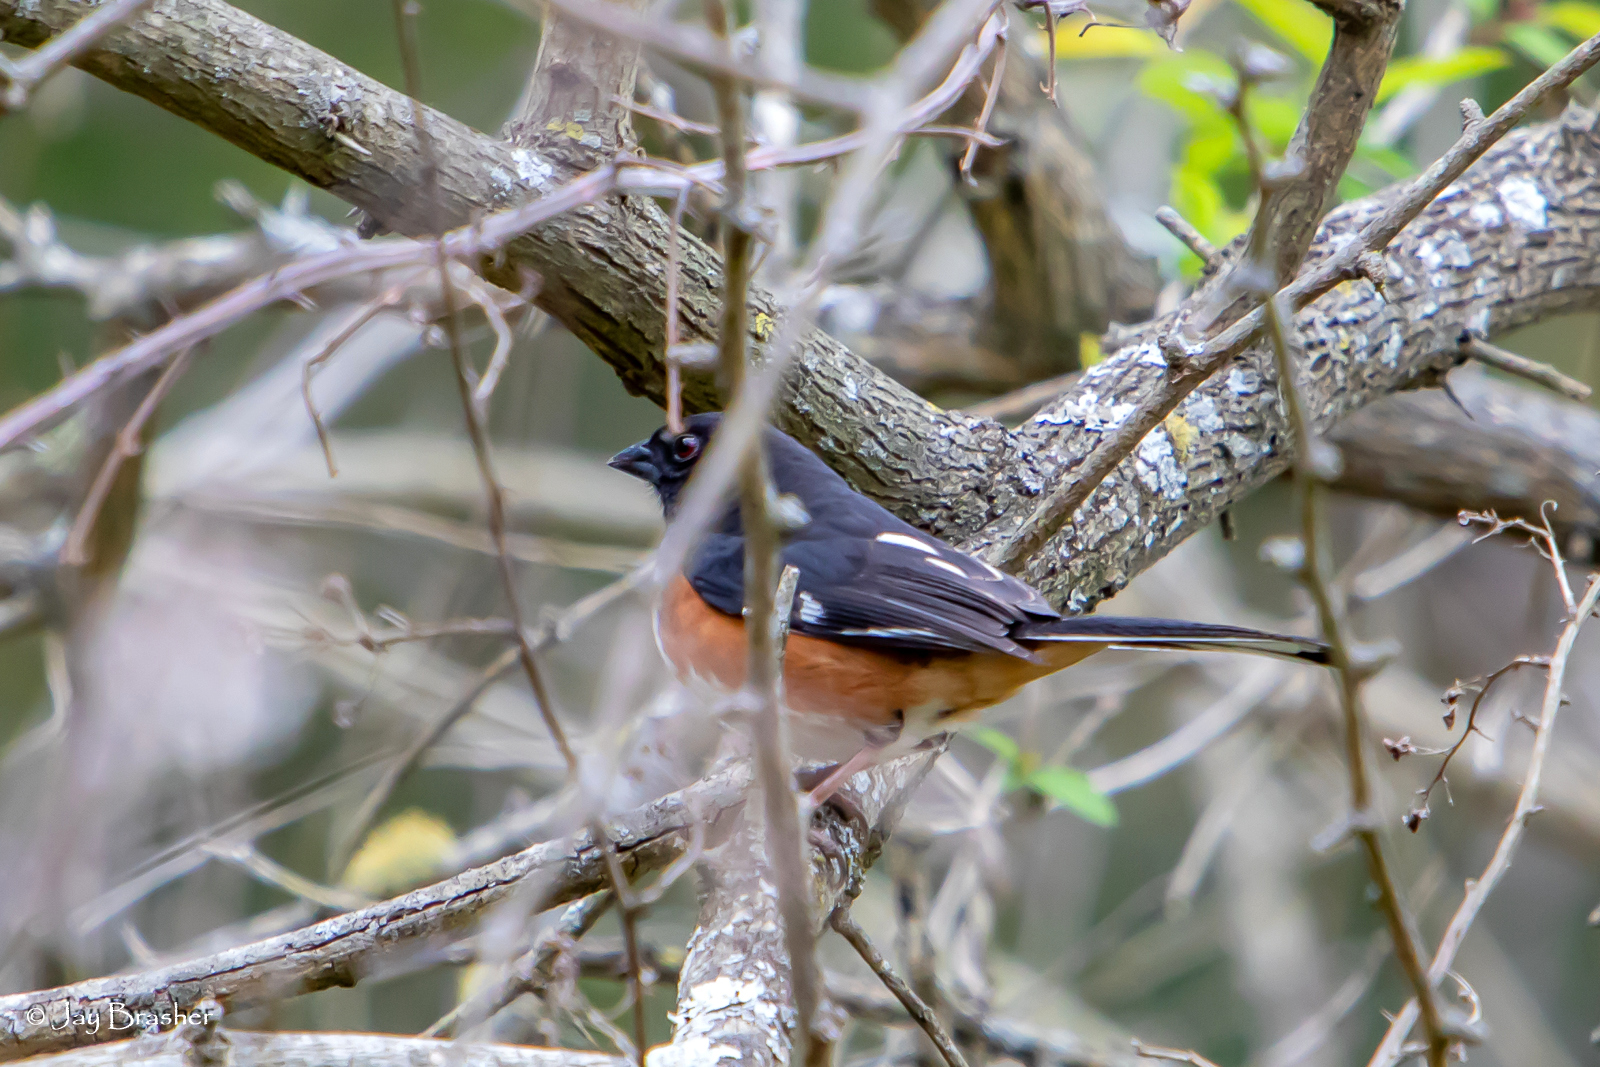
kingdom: Animalia
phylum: Chordata
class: Aves
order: Passeriformes
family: Passerellidae
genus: Pipilo
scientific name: Pipilo erythrophthalmus
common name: Eastern towhee
